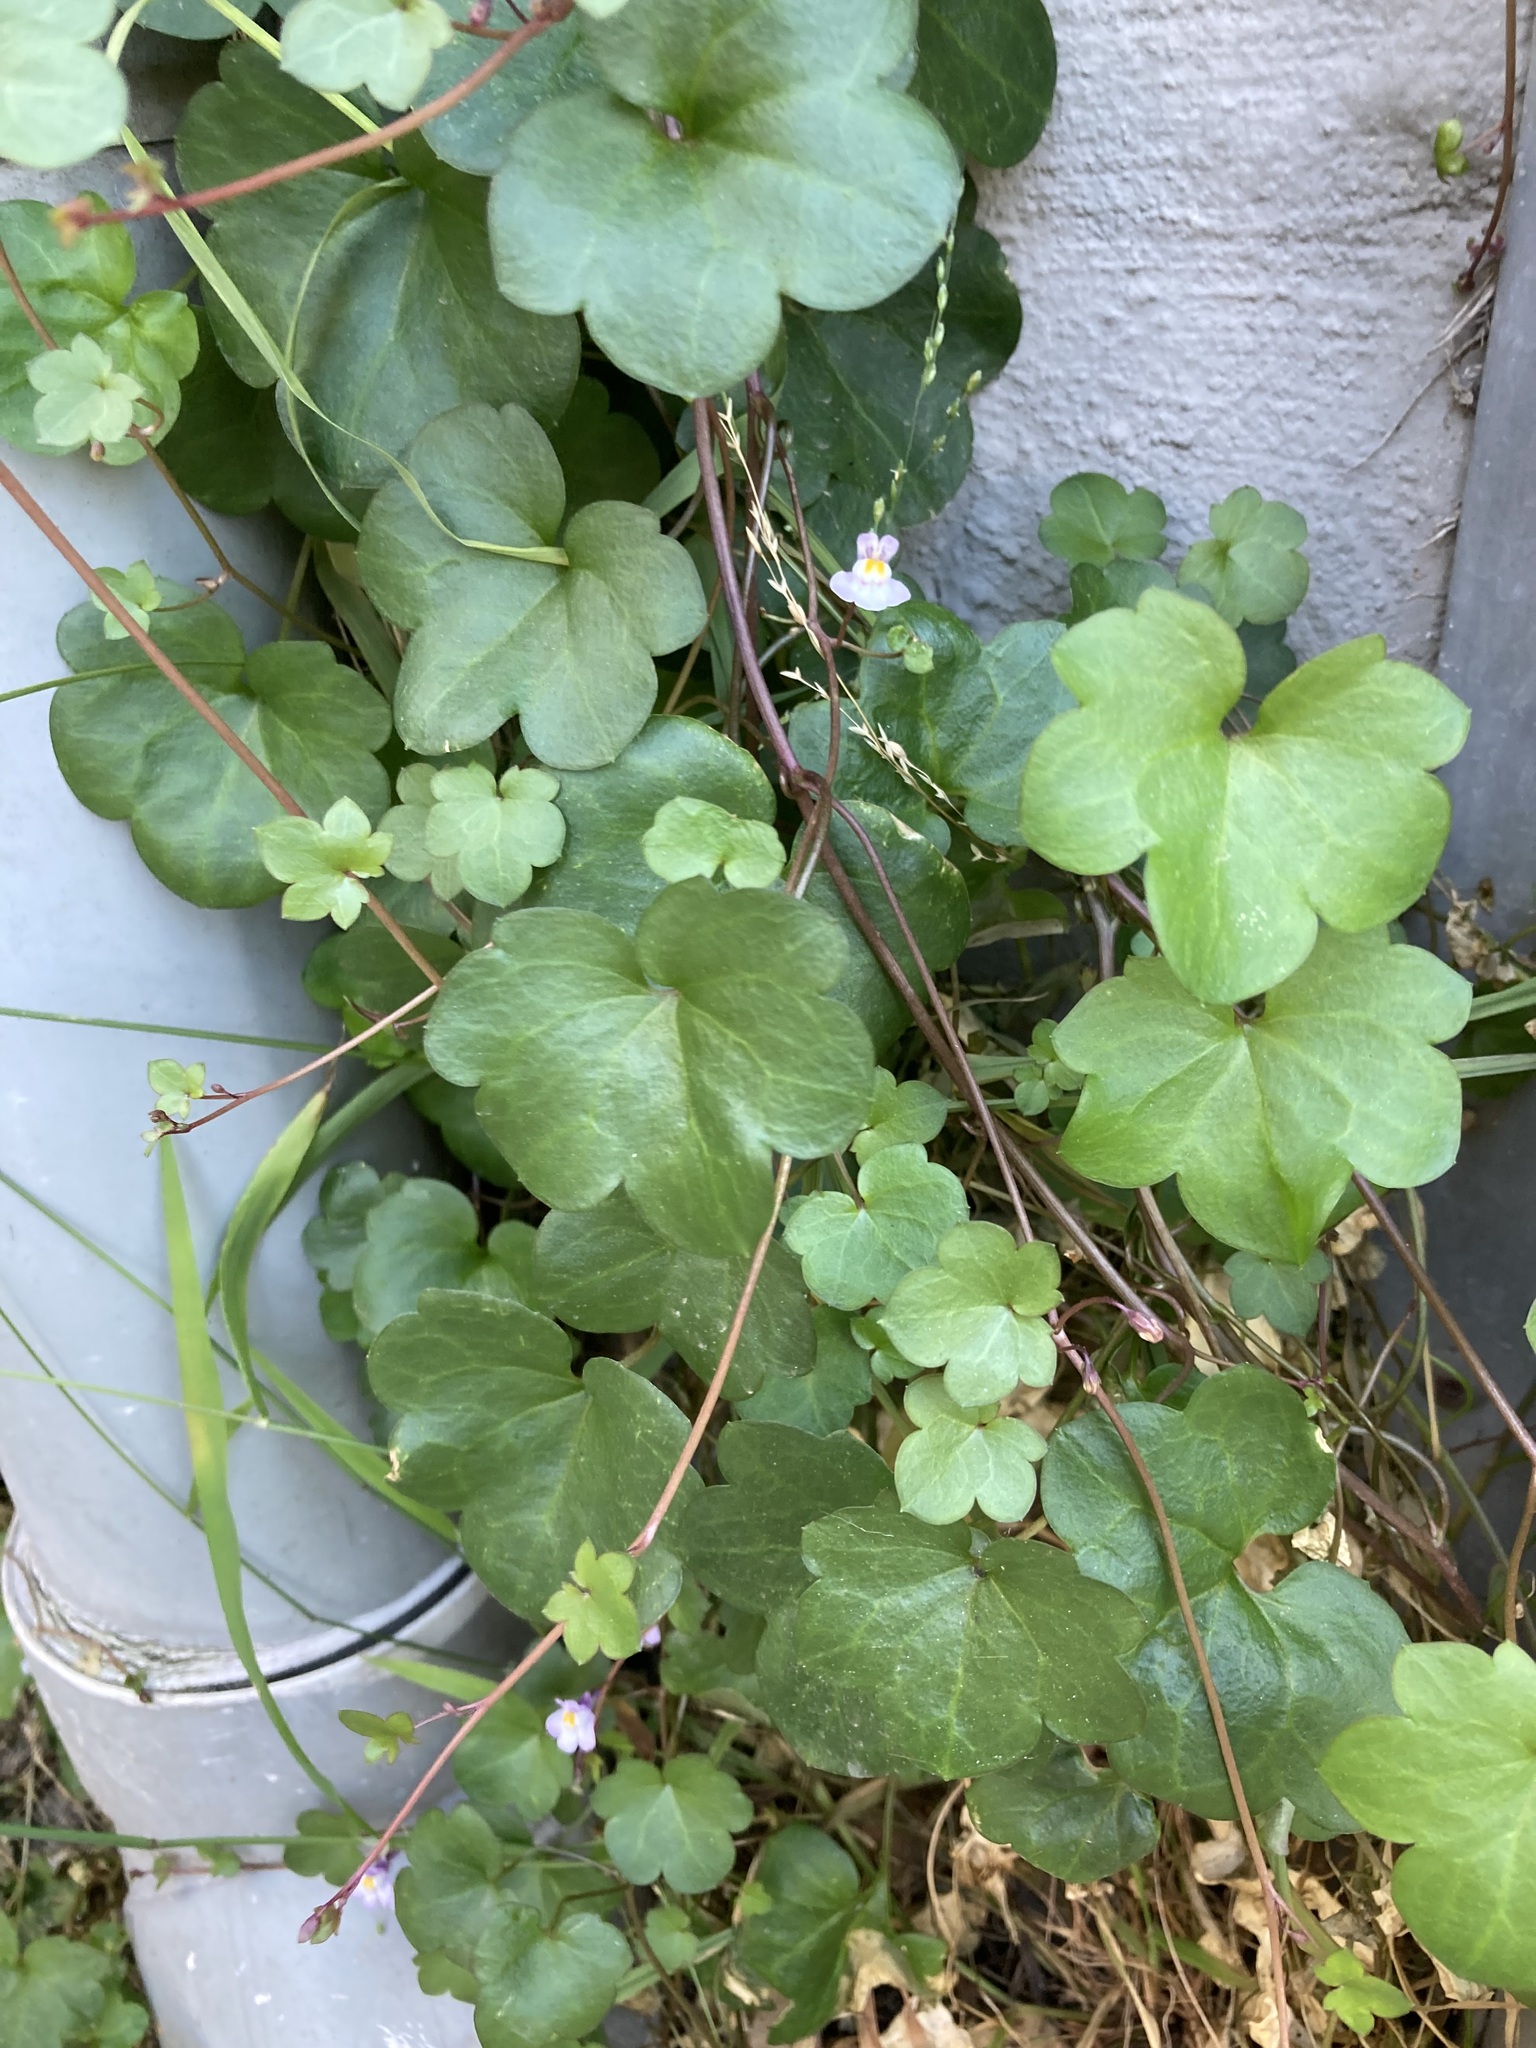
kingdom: Plantae
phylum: Tracheophyta
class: Magnoliopsida
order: Lamiales
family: Plantaginaceae
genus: Cymbalaria
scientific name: Cymbalaria muralis
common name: Ivy-leaved toadflax
